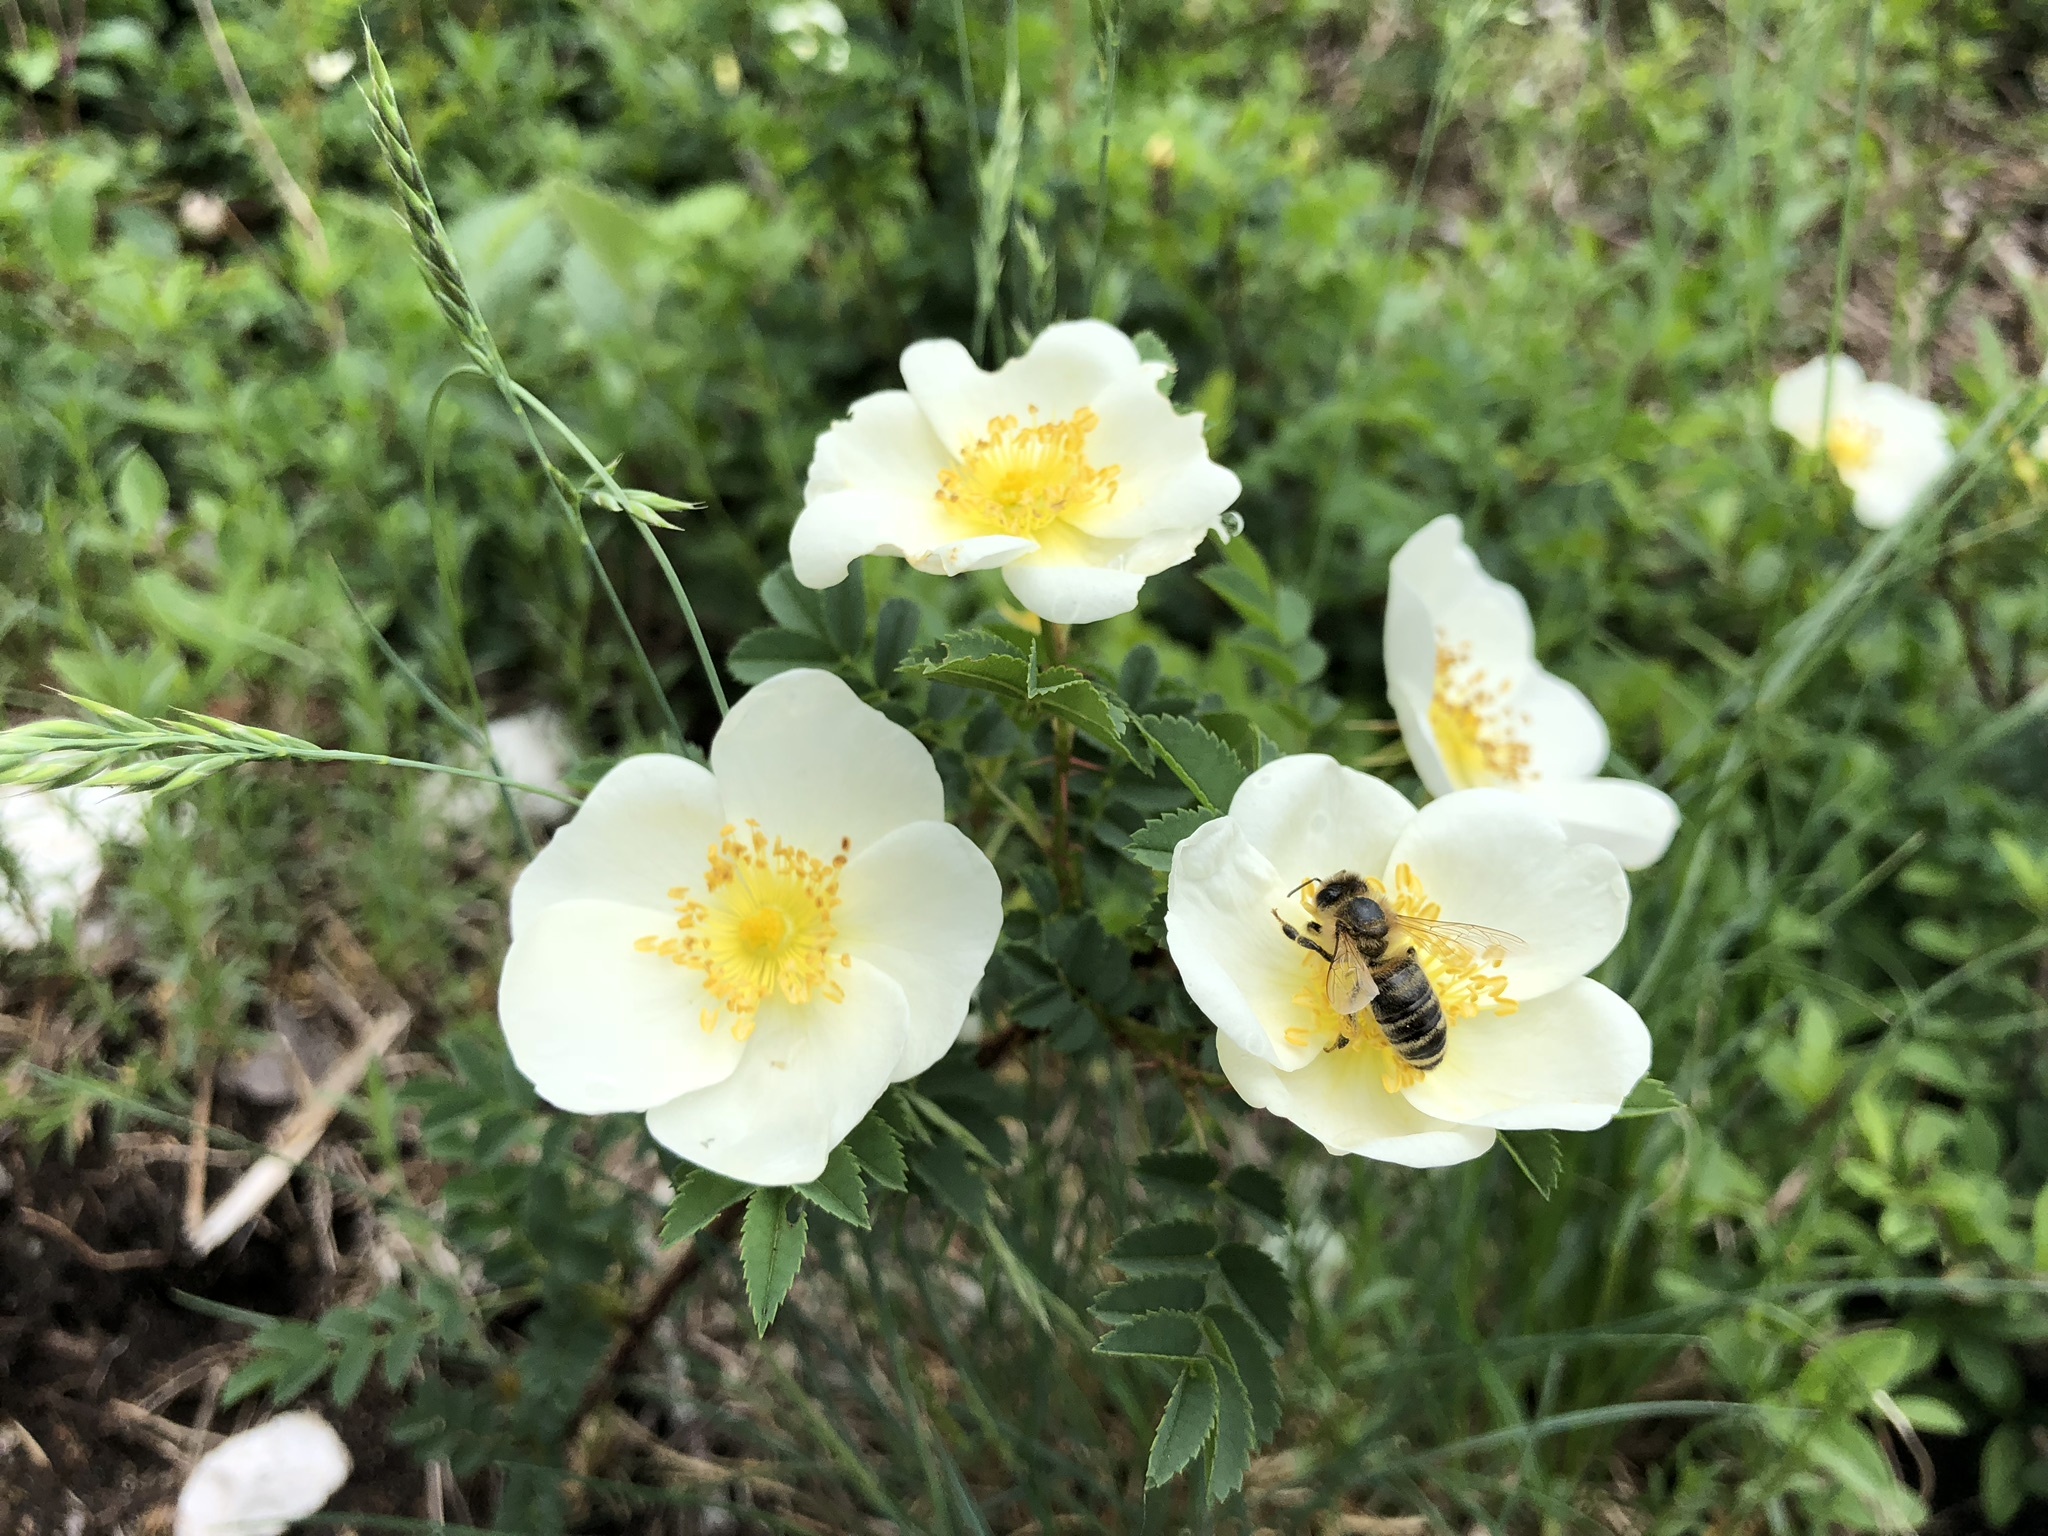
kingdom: Plantae
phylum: Tracheophyta
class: Magnoliopsida
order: Rosales
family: Rosaceae
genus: Rosa
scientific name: Rosa spinosissima
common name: Burnet rose
